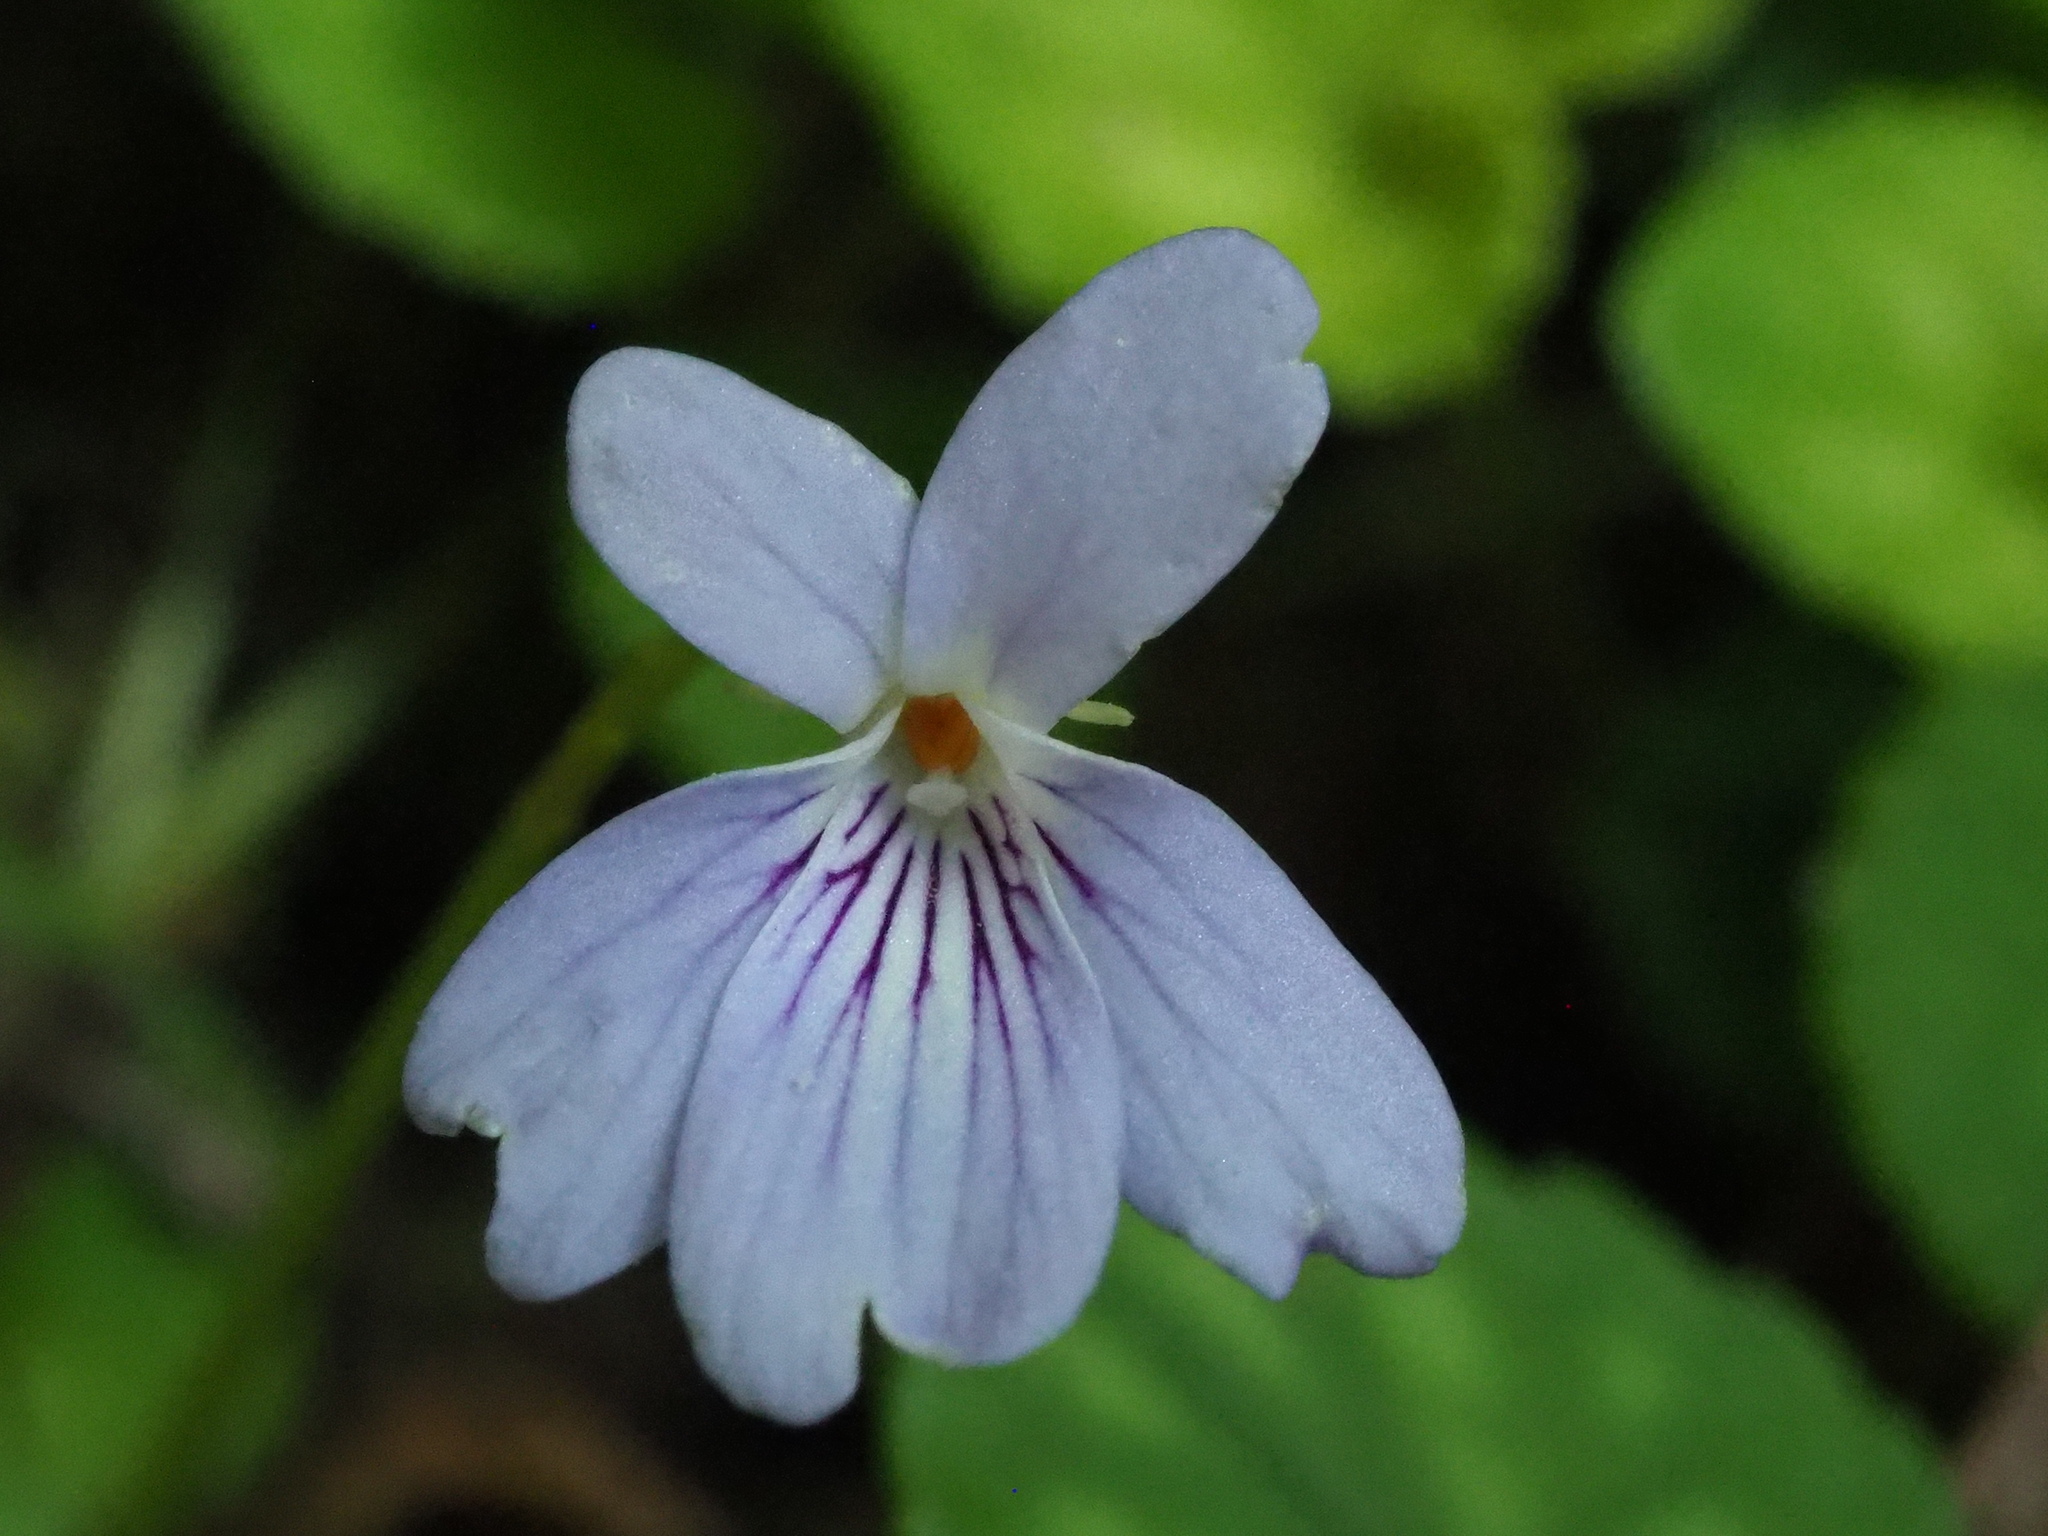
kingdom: Plantae
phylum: Tracheophyta
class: Magnoliopsida
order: Malpighiales
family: Violaceae
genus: Viola
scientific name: Viola formosana
